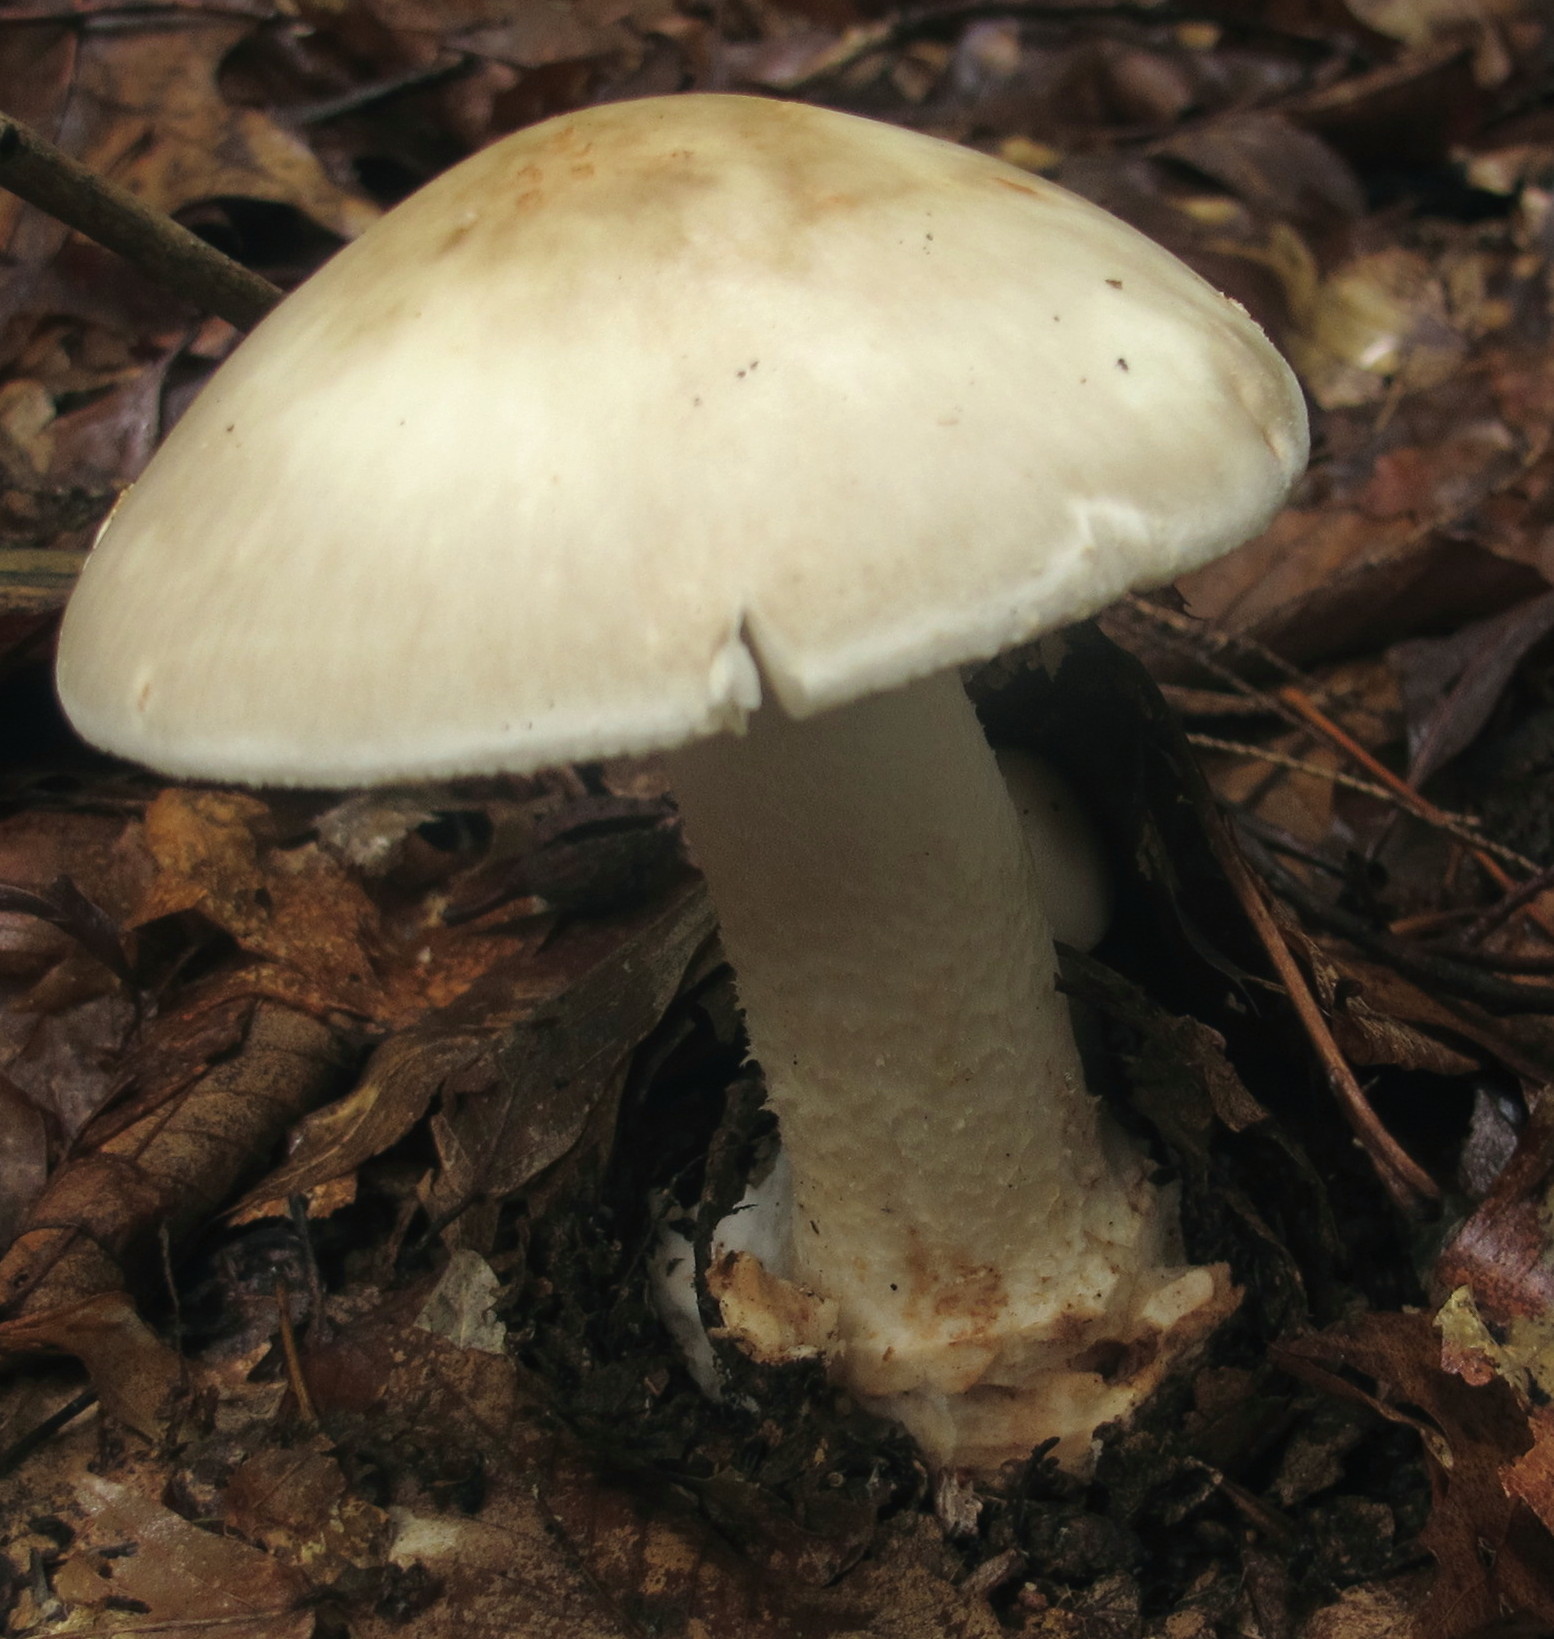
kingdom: Fungi
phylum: Basidiomycota
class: Agaricomycetes
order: Agaricales
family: Amanitaceae
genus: Amanita
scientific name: Amanita brunnescens
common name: Brown american star-footed amanita
